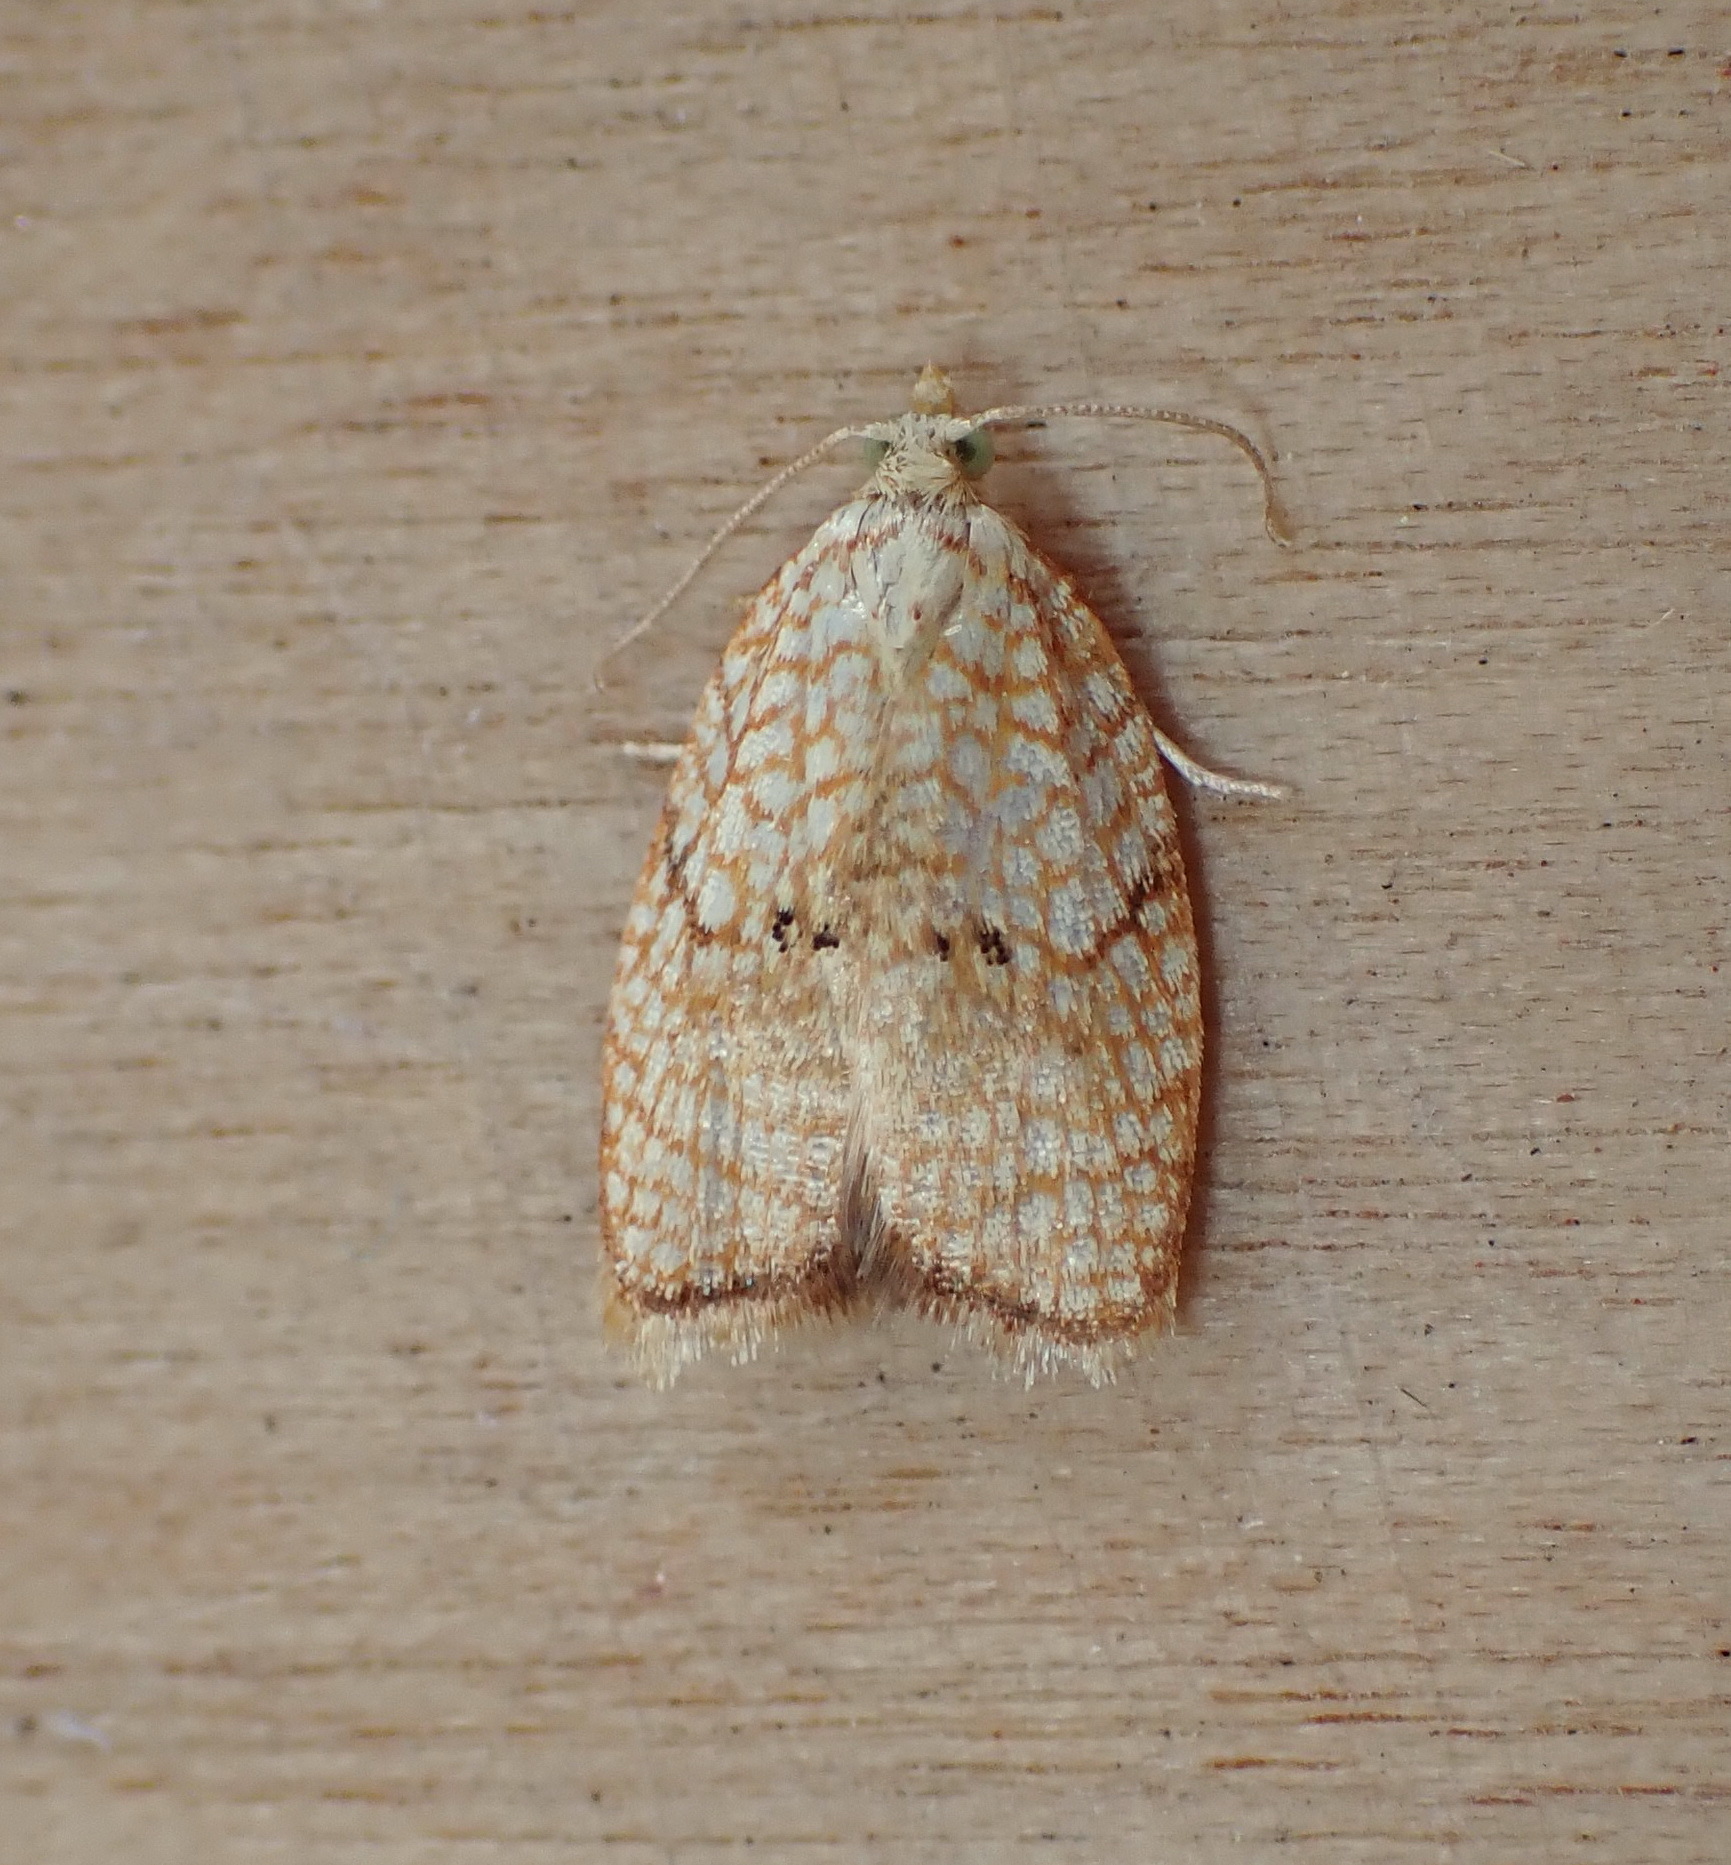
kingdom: Animalia
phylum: Arthropoda
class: Insecta
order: Lepidoptera
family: Tortricidae
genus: Acleris
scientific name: Acleris forsskaleana
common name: Maple button
